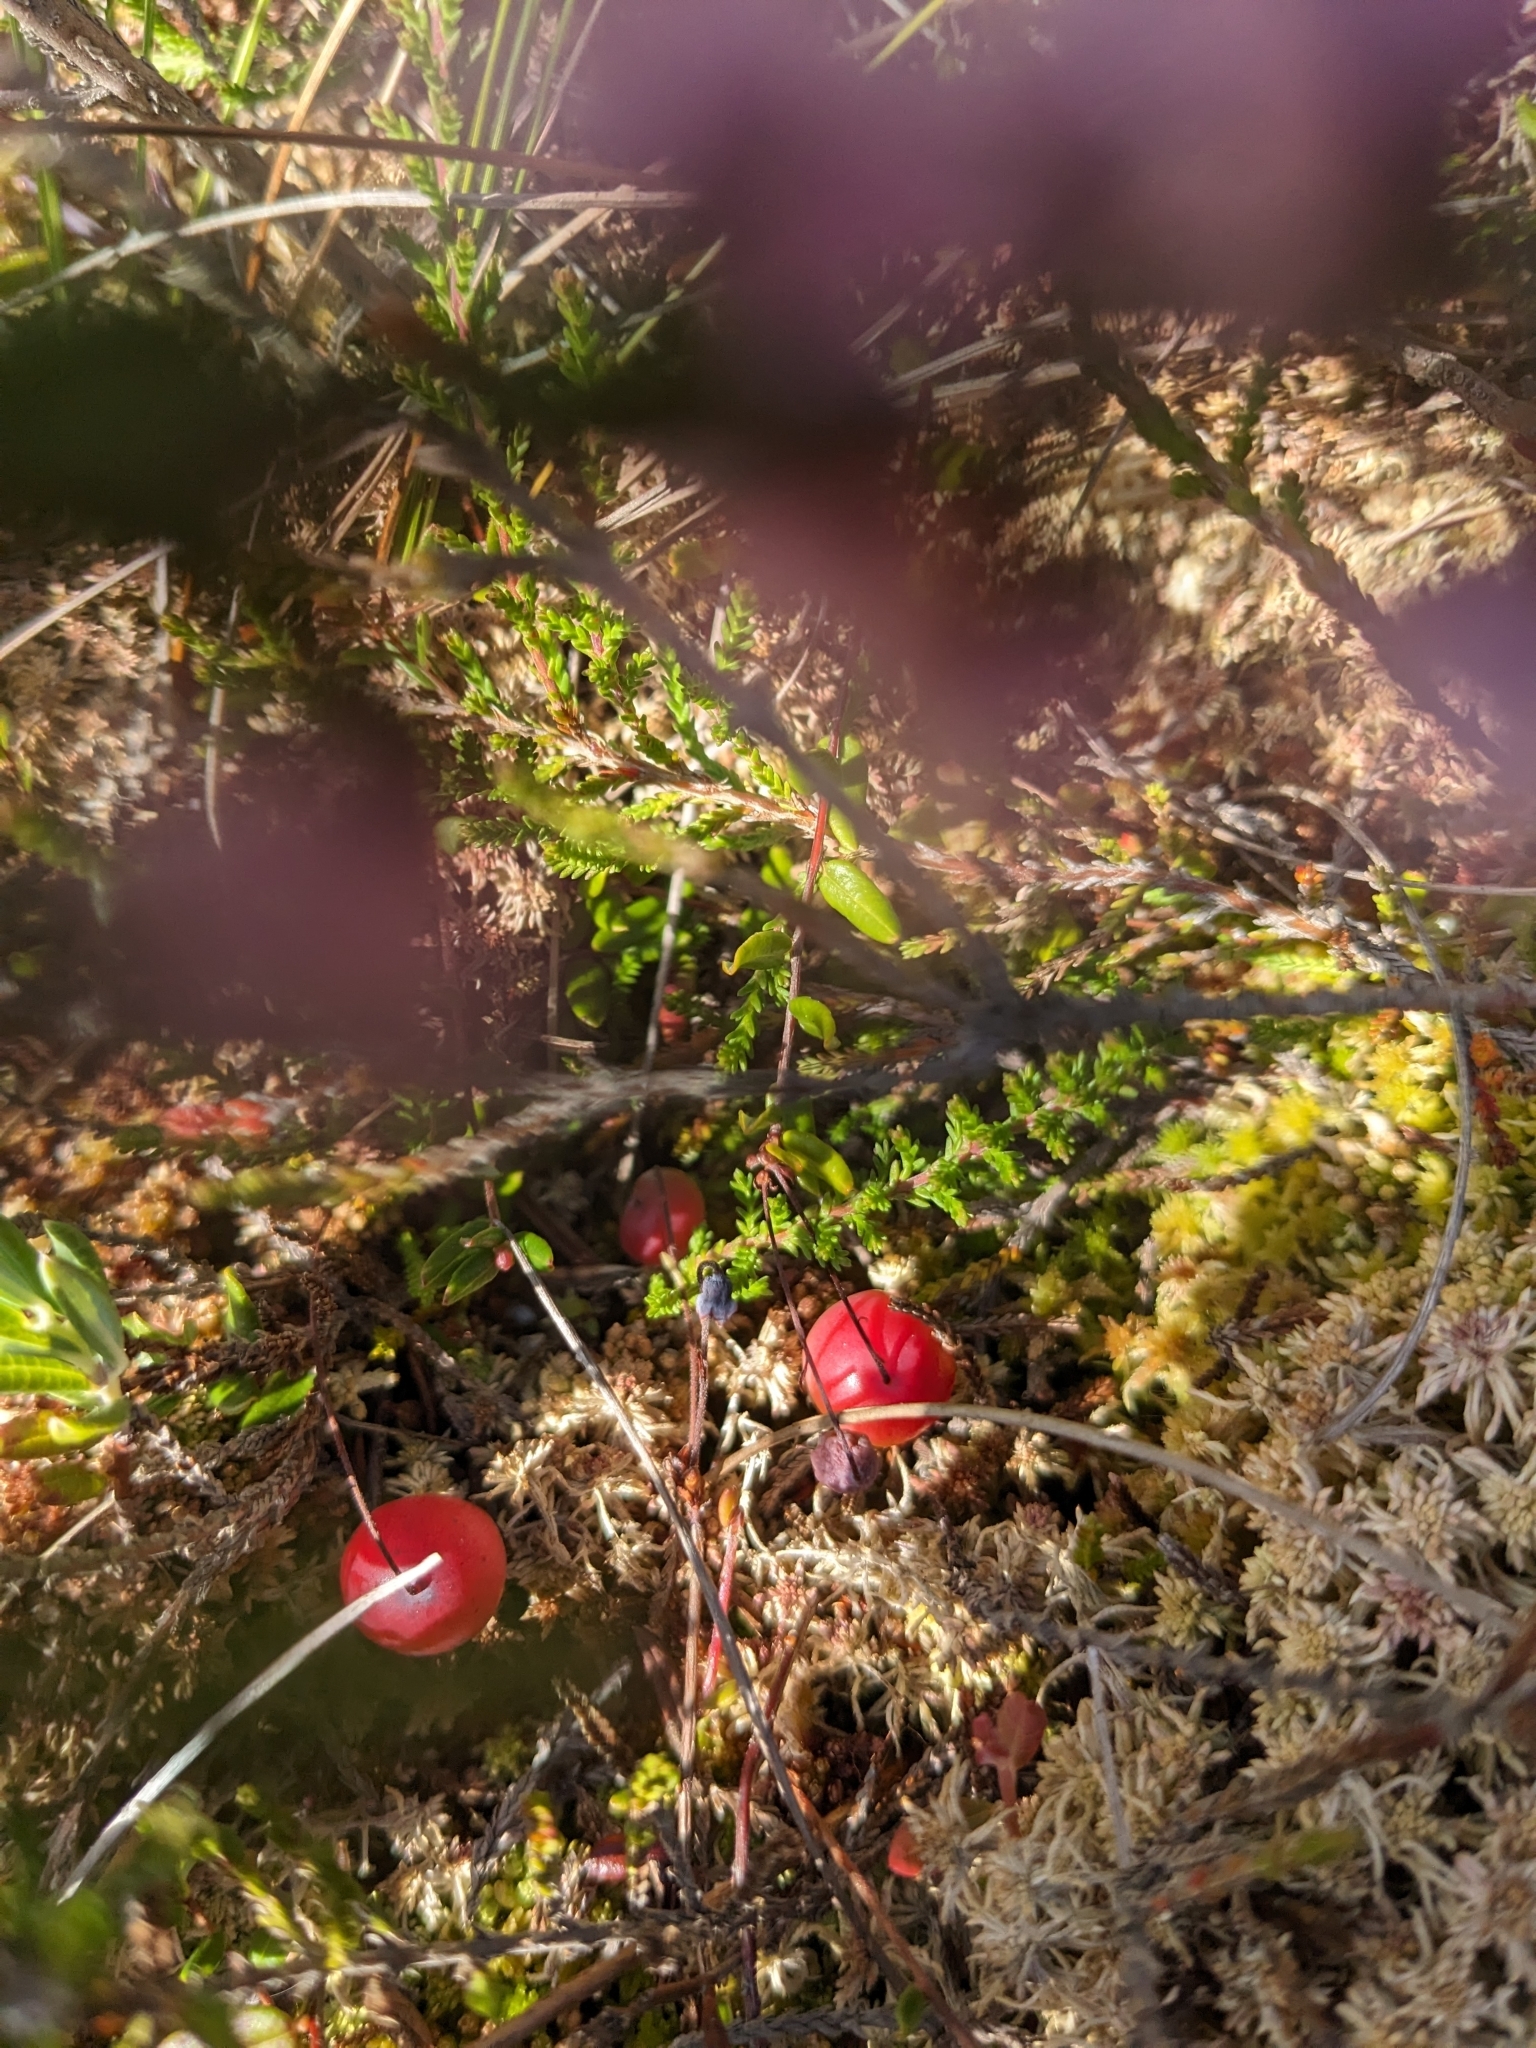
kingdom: Plantae
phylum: Tracheophyta
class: Magnoliopsida
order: Ericales
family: Ericaceae
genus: Vaccinium
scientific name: Vaccinium oxycoccos
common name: Cranberry
